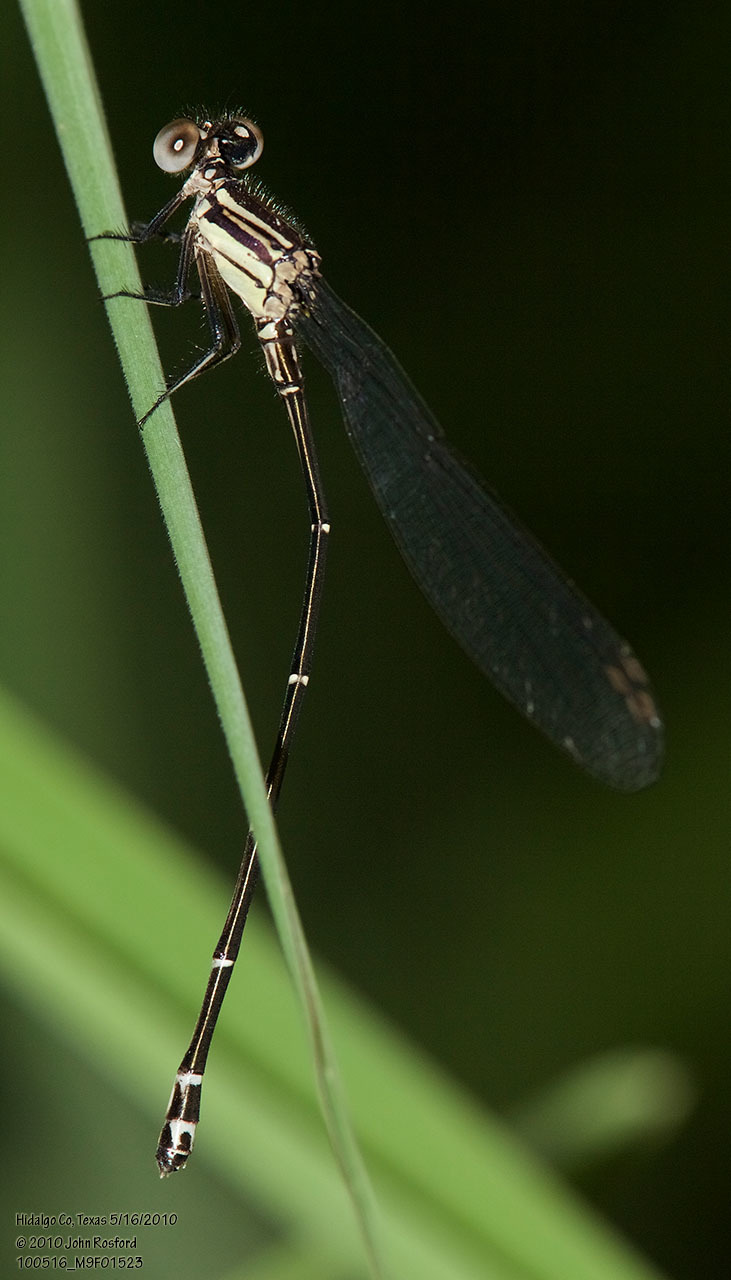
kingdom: Animalia
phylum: Arthropoda
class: Insecta
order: Odonata
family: Coenagrionidae
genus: Argia
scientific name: Argia translata
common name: Dusky dancer
